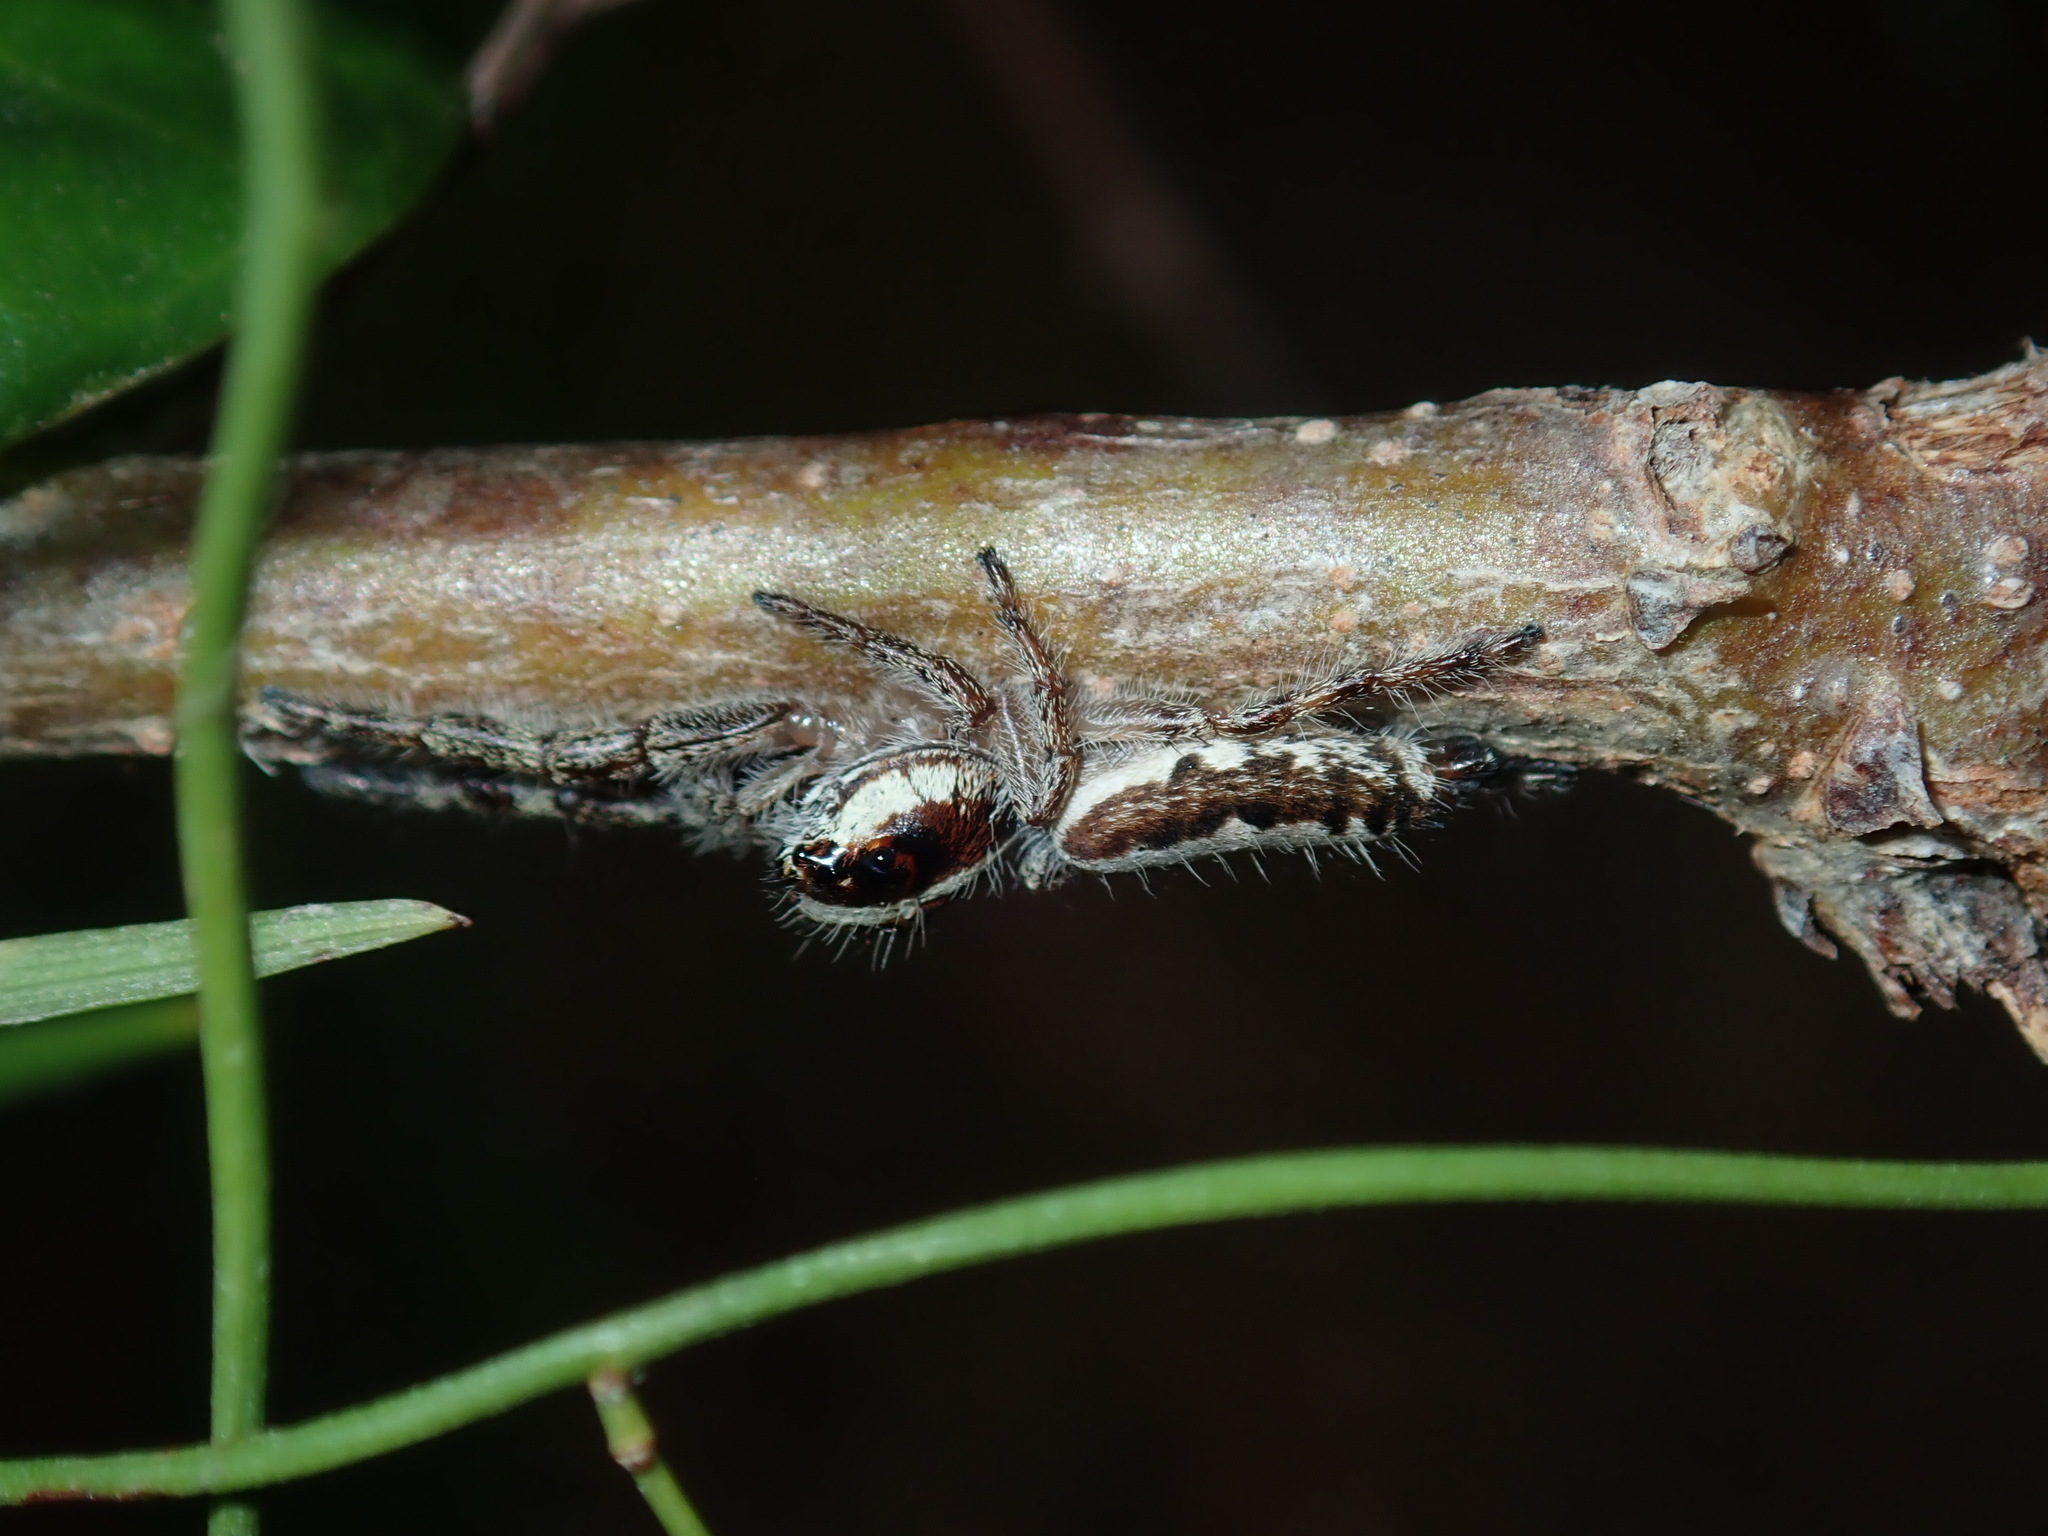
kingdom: Animalia
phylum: Arthropoda
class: Arachnida
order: Araneae
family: Salticidae
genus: Sandalodes
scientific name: Sandalodes bipenicillatus
